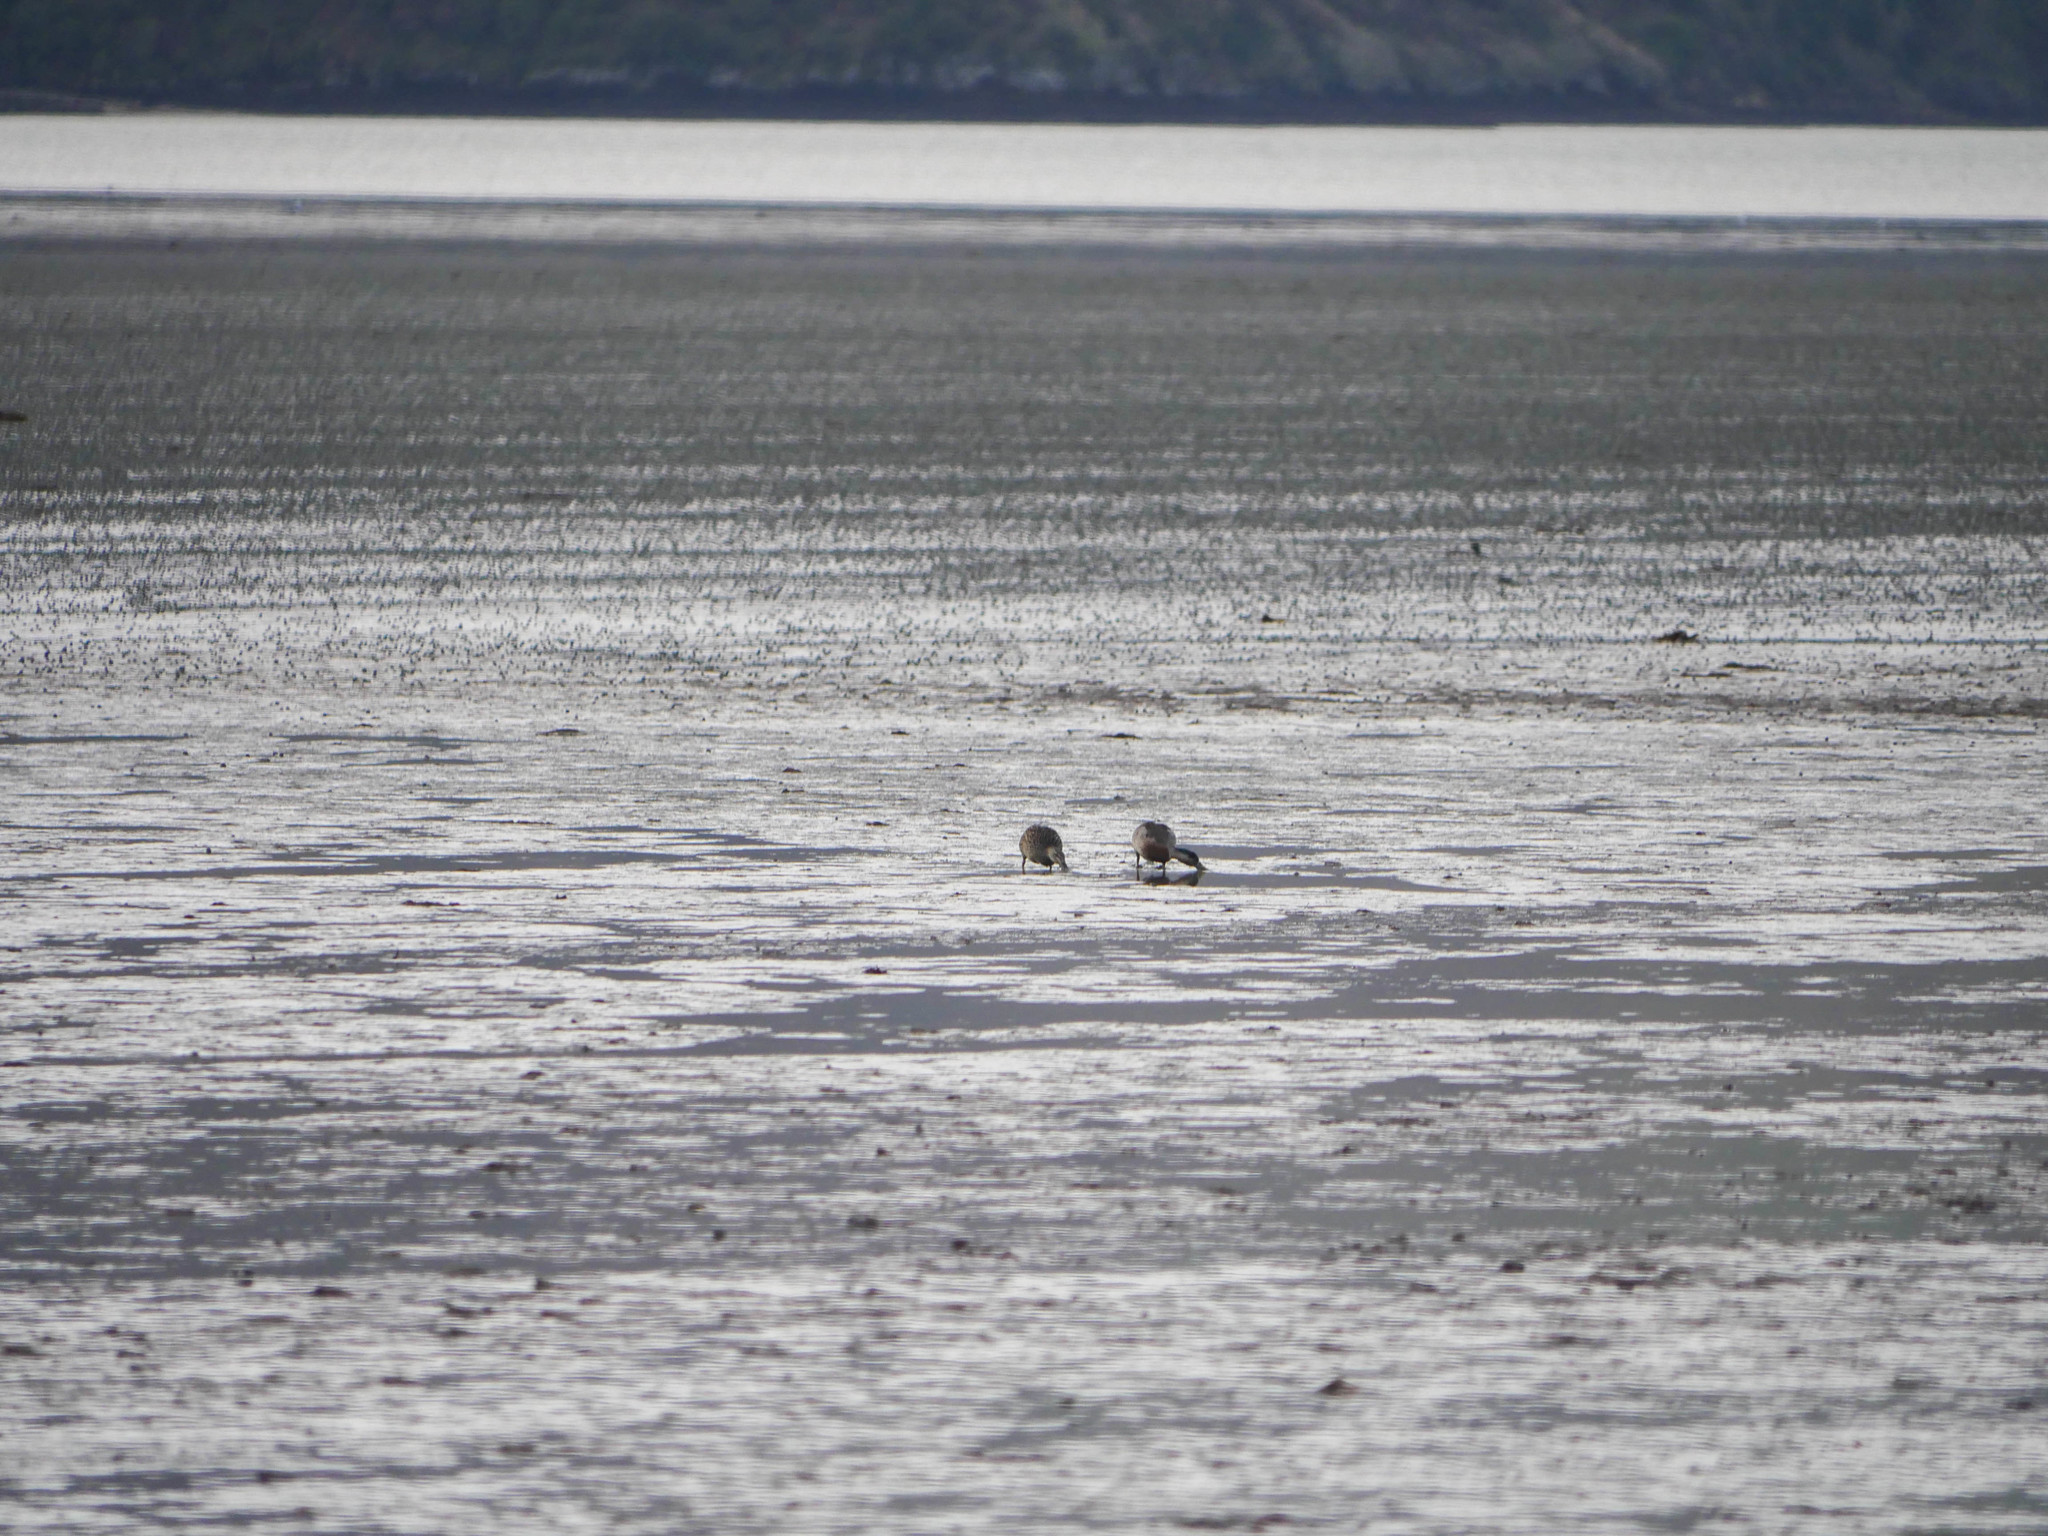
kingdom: Animalia
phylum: Chordata
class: Aves
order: Anseriformes
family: Anatidae
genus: Anas
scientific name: Anas platyrhynchos
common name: Mallard
